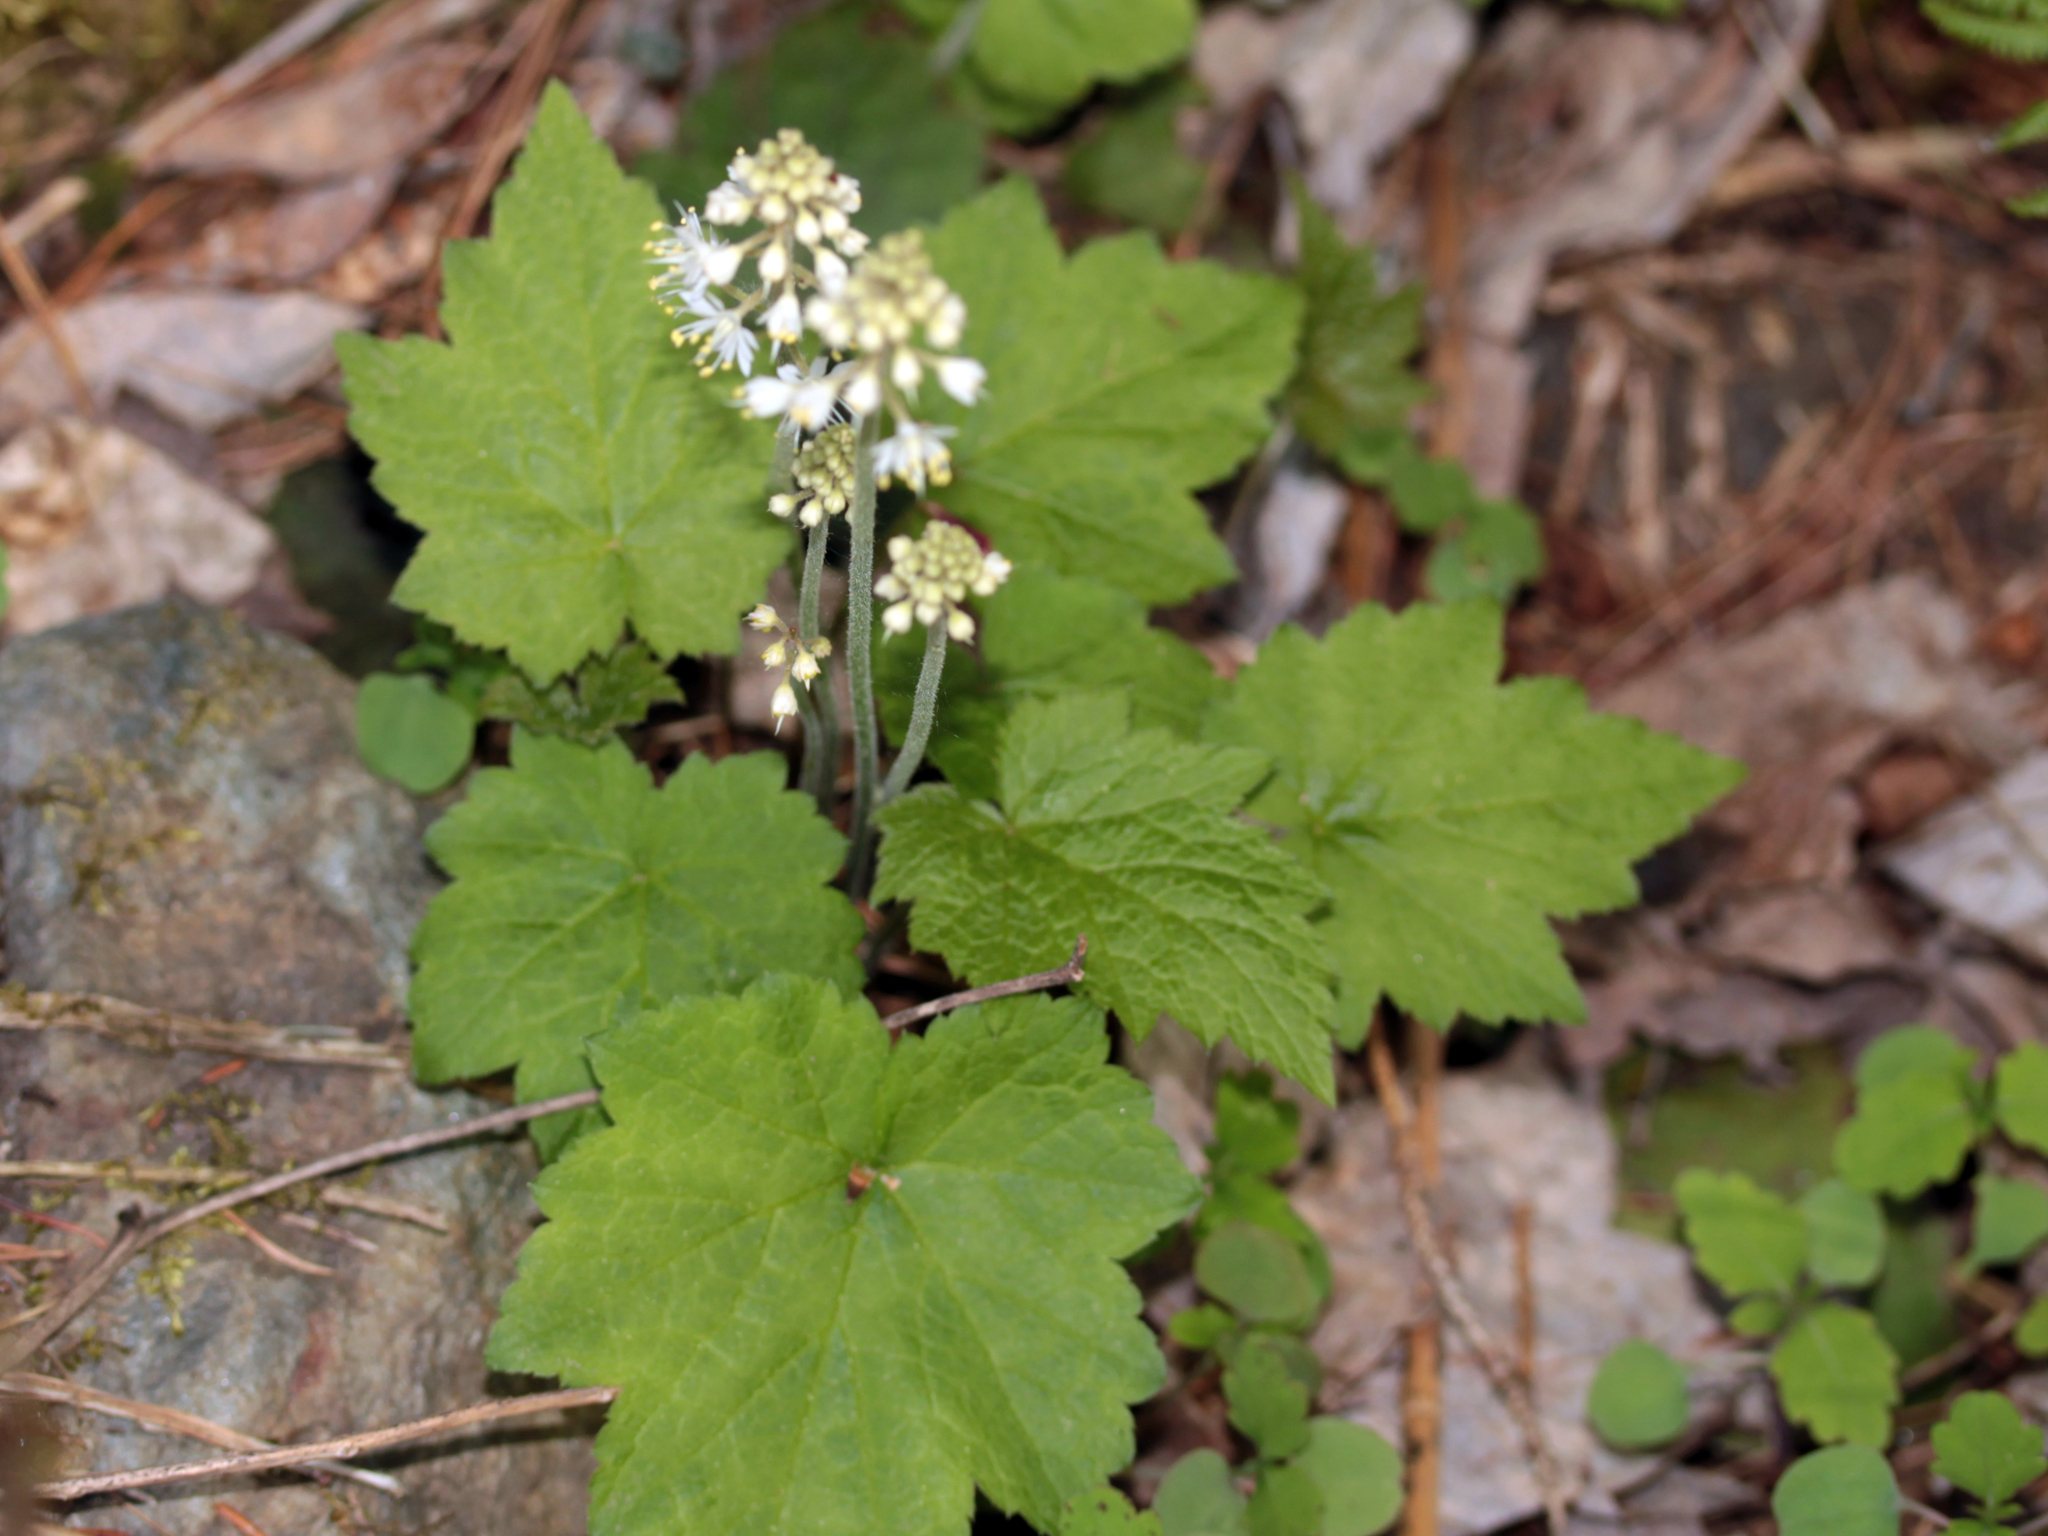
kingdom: Plantae
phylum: Tracheophyta
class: Magnoliopsida
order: Saxifragales
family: Saxifragaceae
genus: Tiarella
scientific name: Tiarella stolonifera
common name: Stoloniferous foamflower
